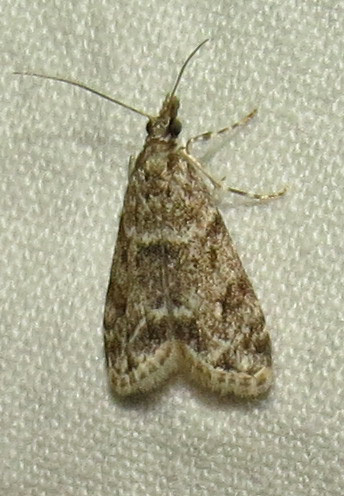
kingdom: Animalia
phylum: Arthropoda
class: Insecta
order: Lepidoptera
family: Crambidae
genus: Eudonia
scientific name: Eudonia heterosalis
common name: Mcdunnough's eudonia
